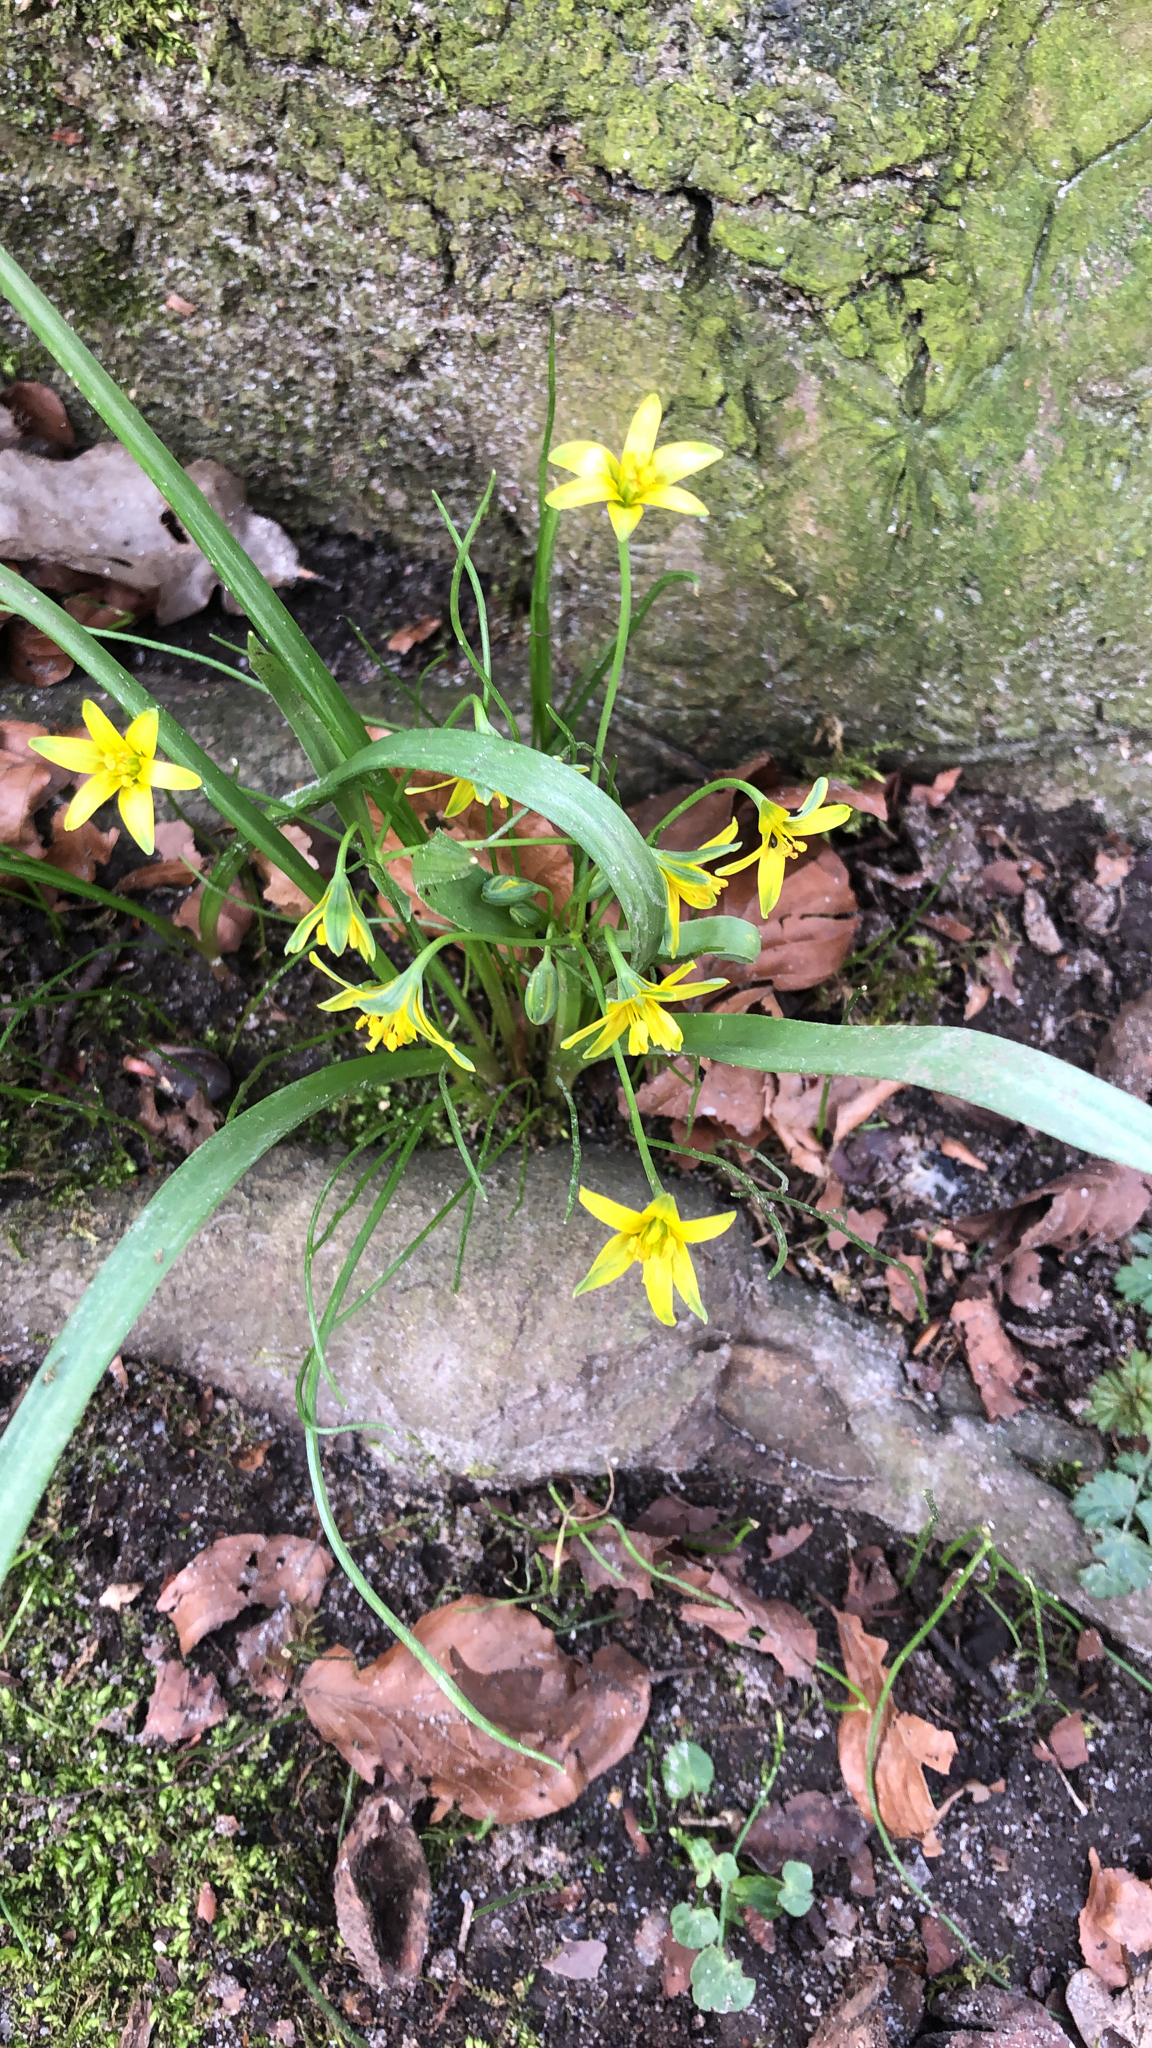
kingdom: Plantae
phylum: Tracheophyta
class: Liliopsida
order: Liliales
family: Liliaceae
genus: Gagea
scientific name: Gagea lutea
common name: Yellow star-of-bethlehem
